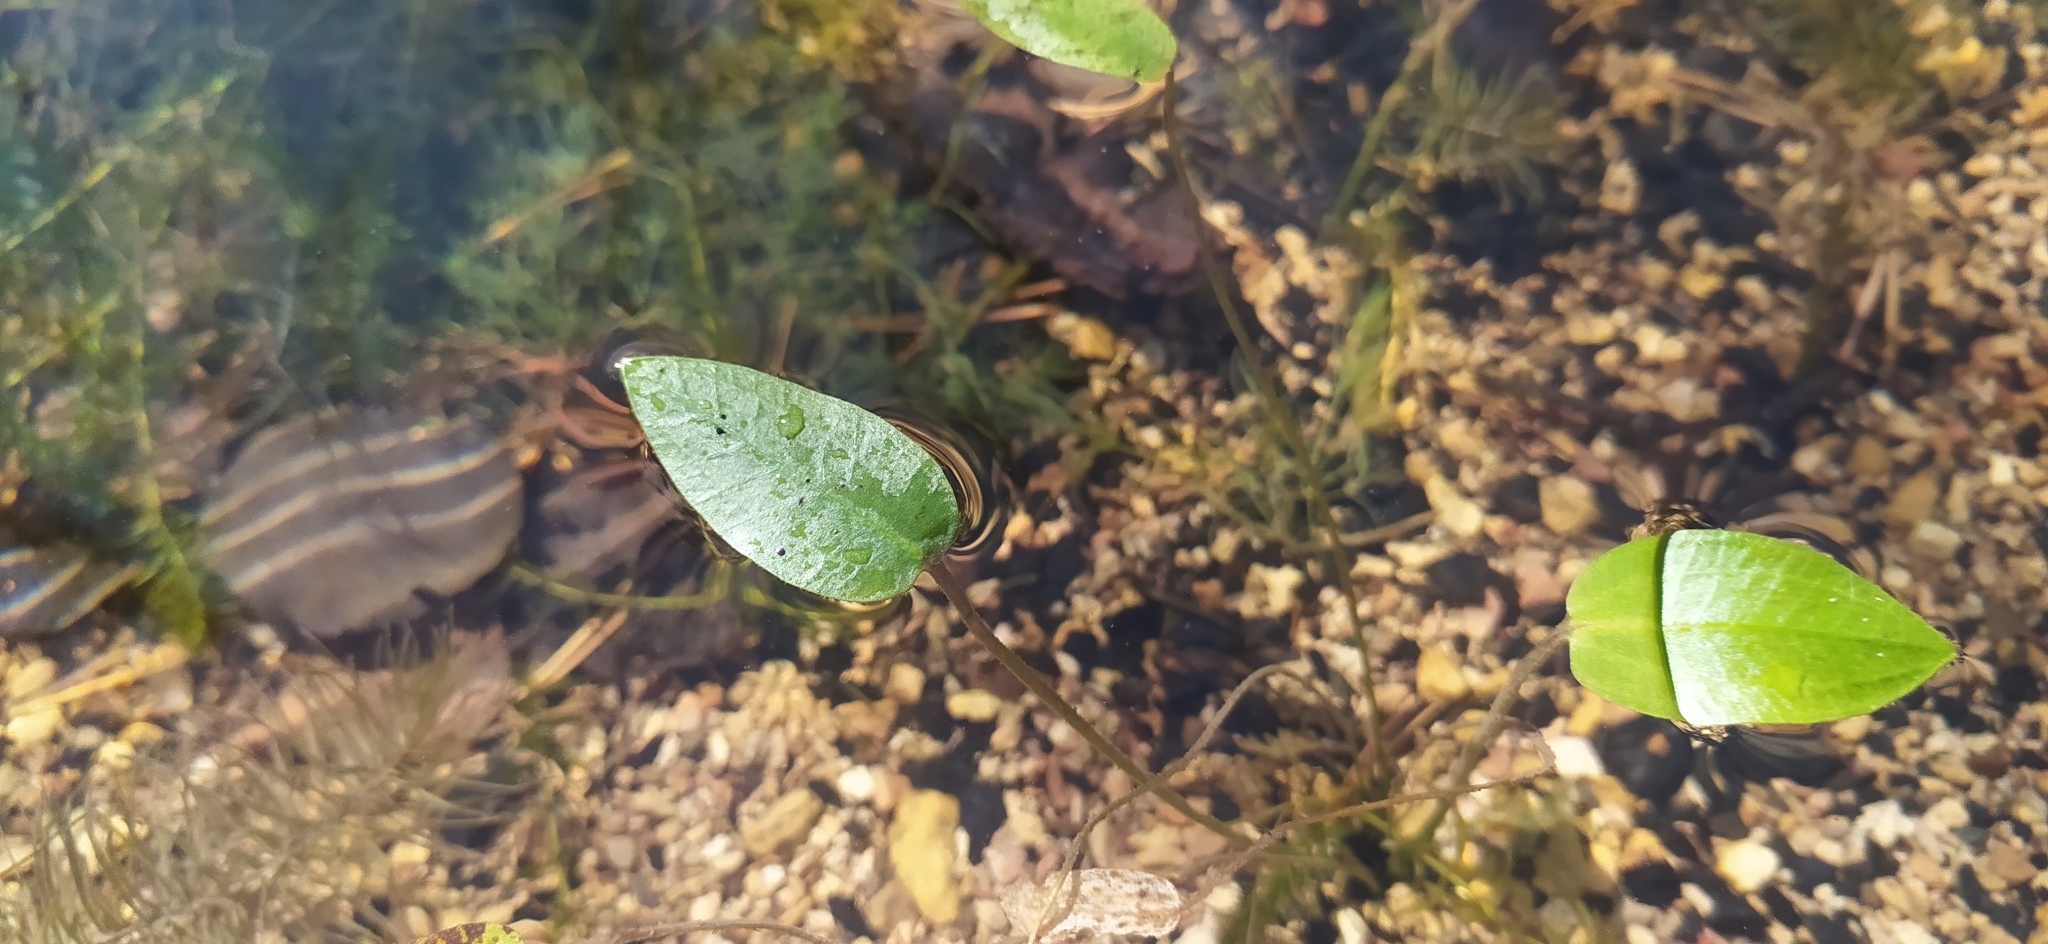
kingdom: Plantae
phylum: Tracheophyta
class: Liliopsida
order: Alismatales
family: Alismataceae
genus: Alisma
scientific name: Alisma plantago-aquatica
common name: Water-plantain
